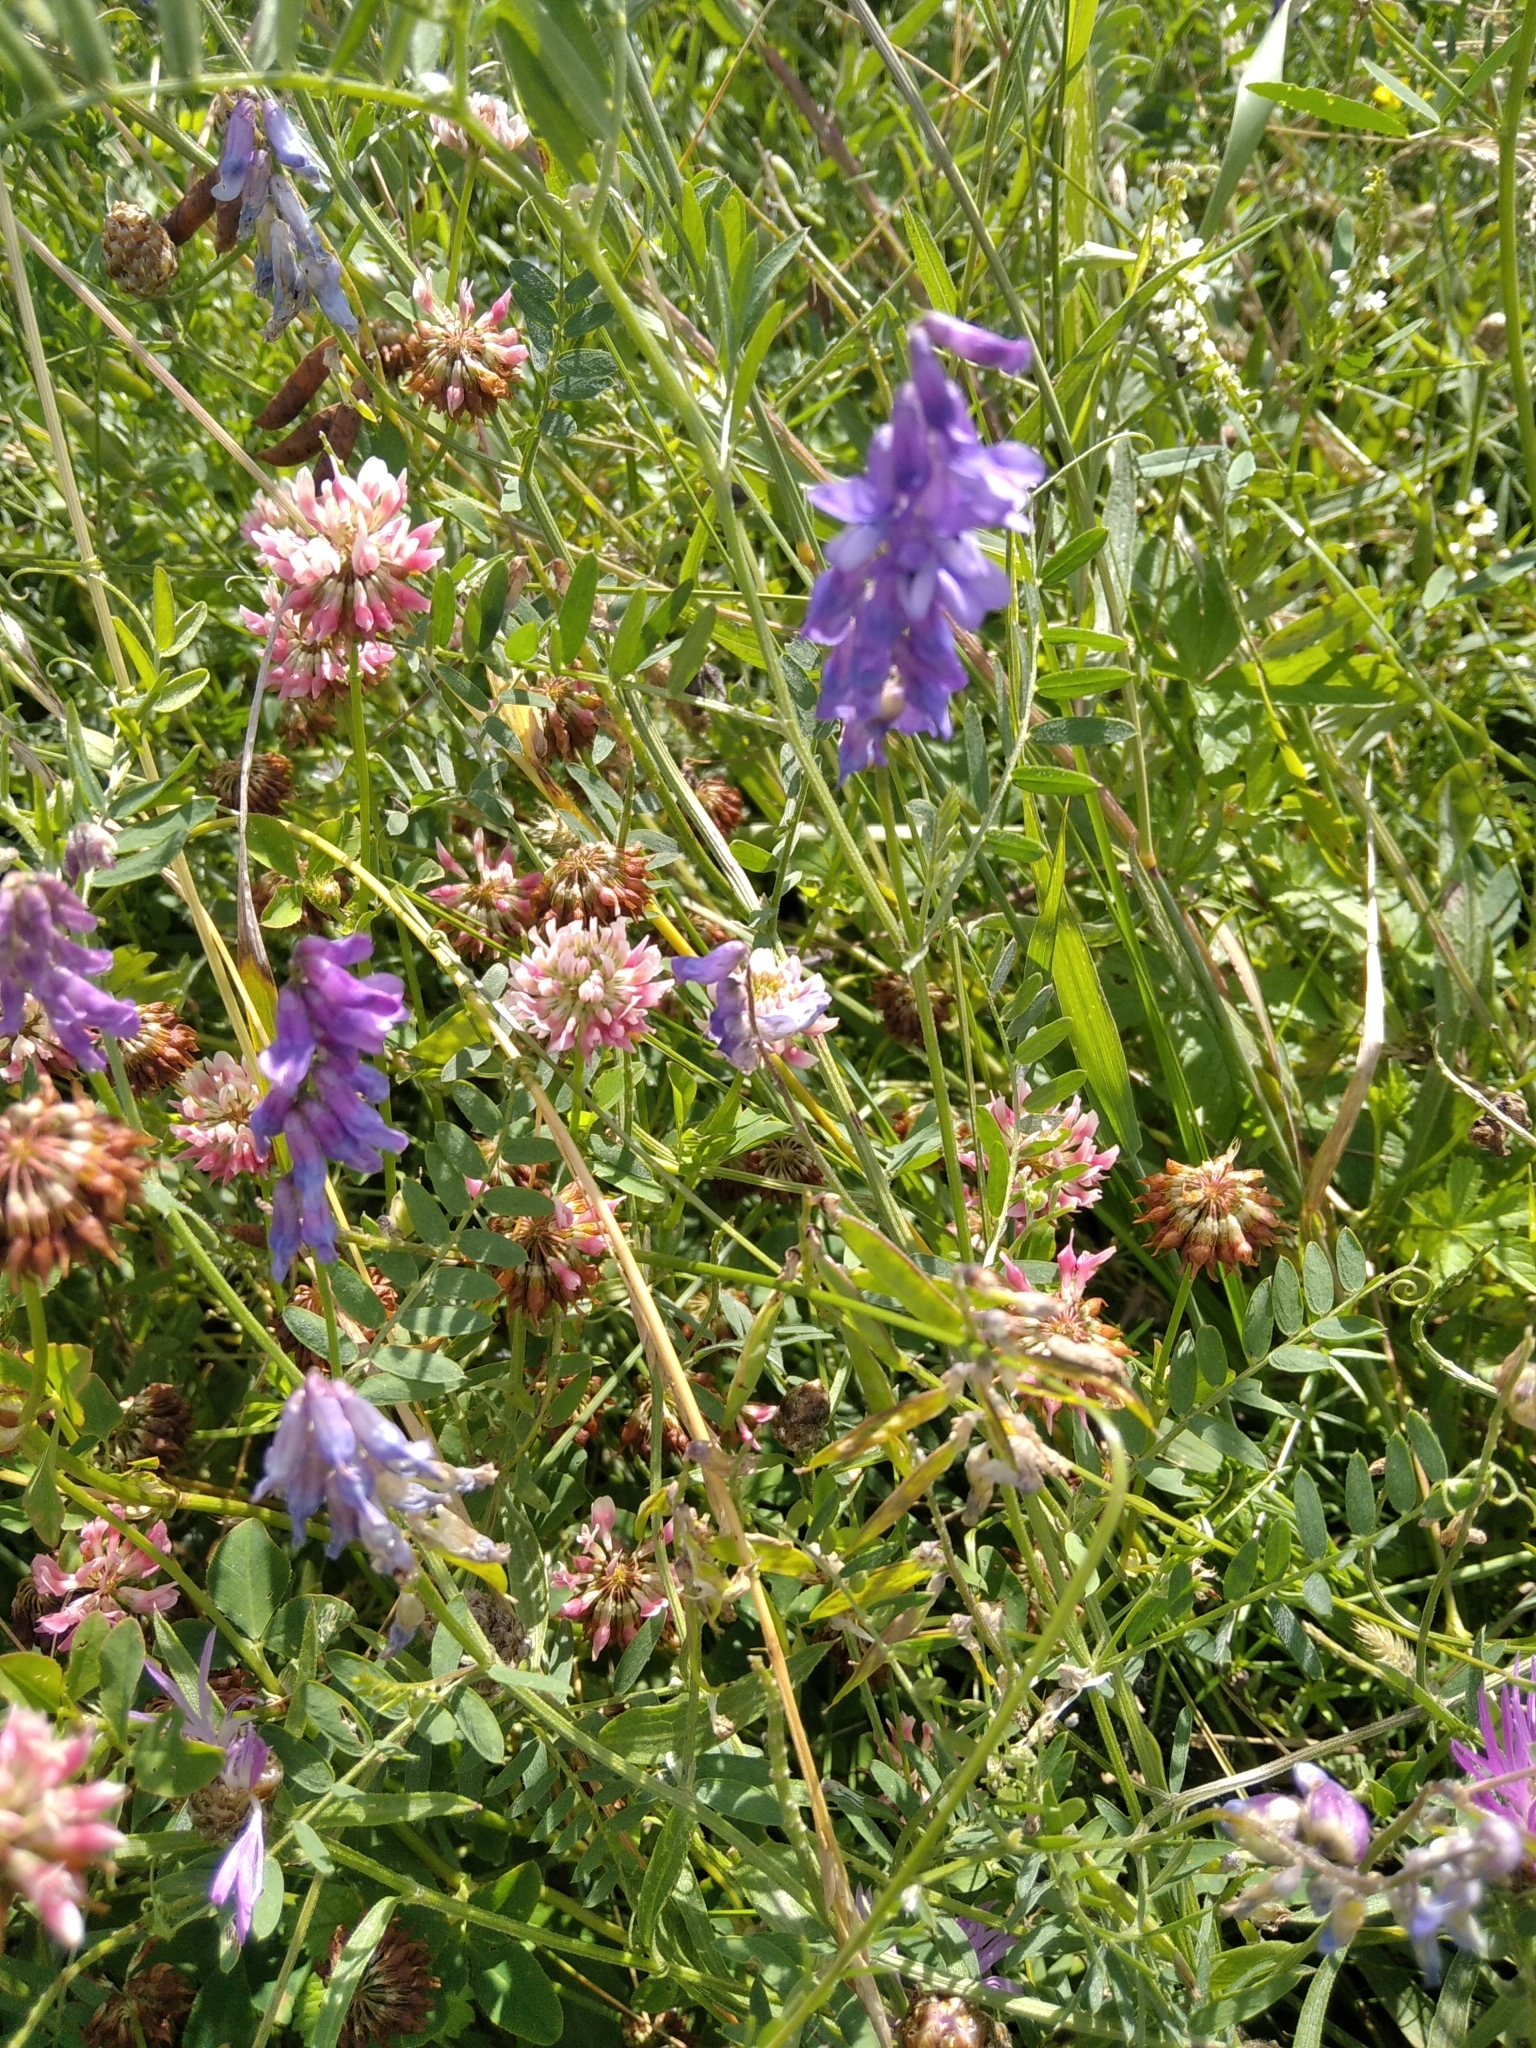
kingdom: Plantae
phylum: Tracheophyta
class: Magnoliopsida
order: Fabales
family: Fabaceae
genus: Vicia
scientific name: Vicia cracca
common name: Bird vetch
